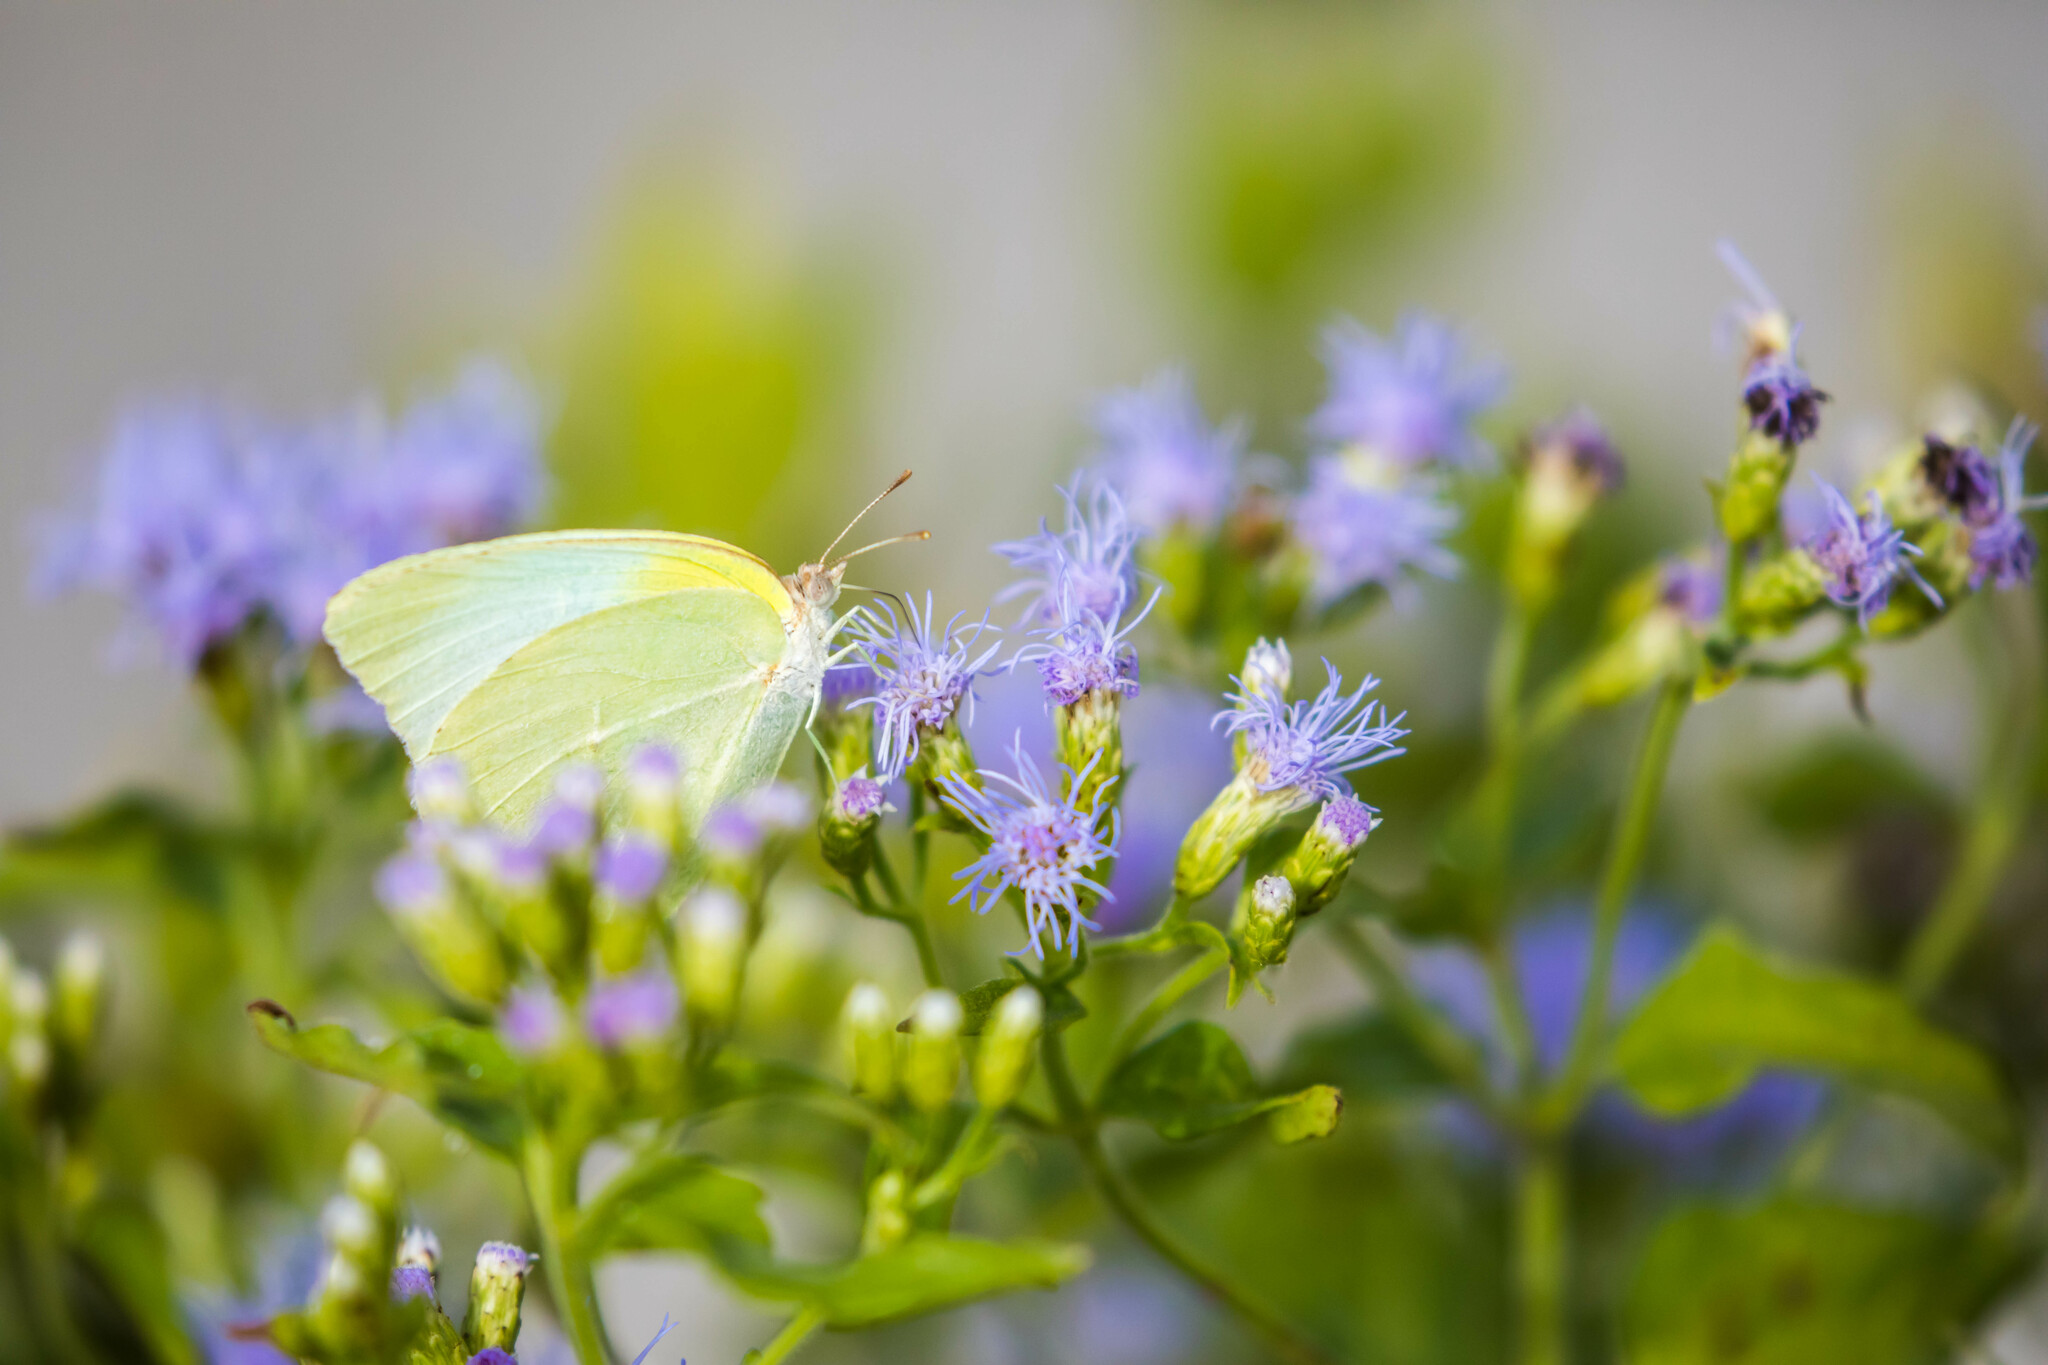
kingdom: Animalia
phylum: Arthropoda
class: Insecta
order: Lepidoptera
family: Pieridae
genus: Kricogonia
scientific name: Kricogonia lyside
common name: Guayacan sulphur,
